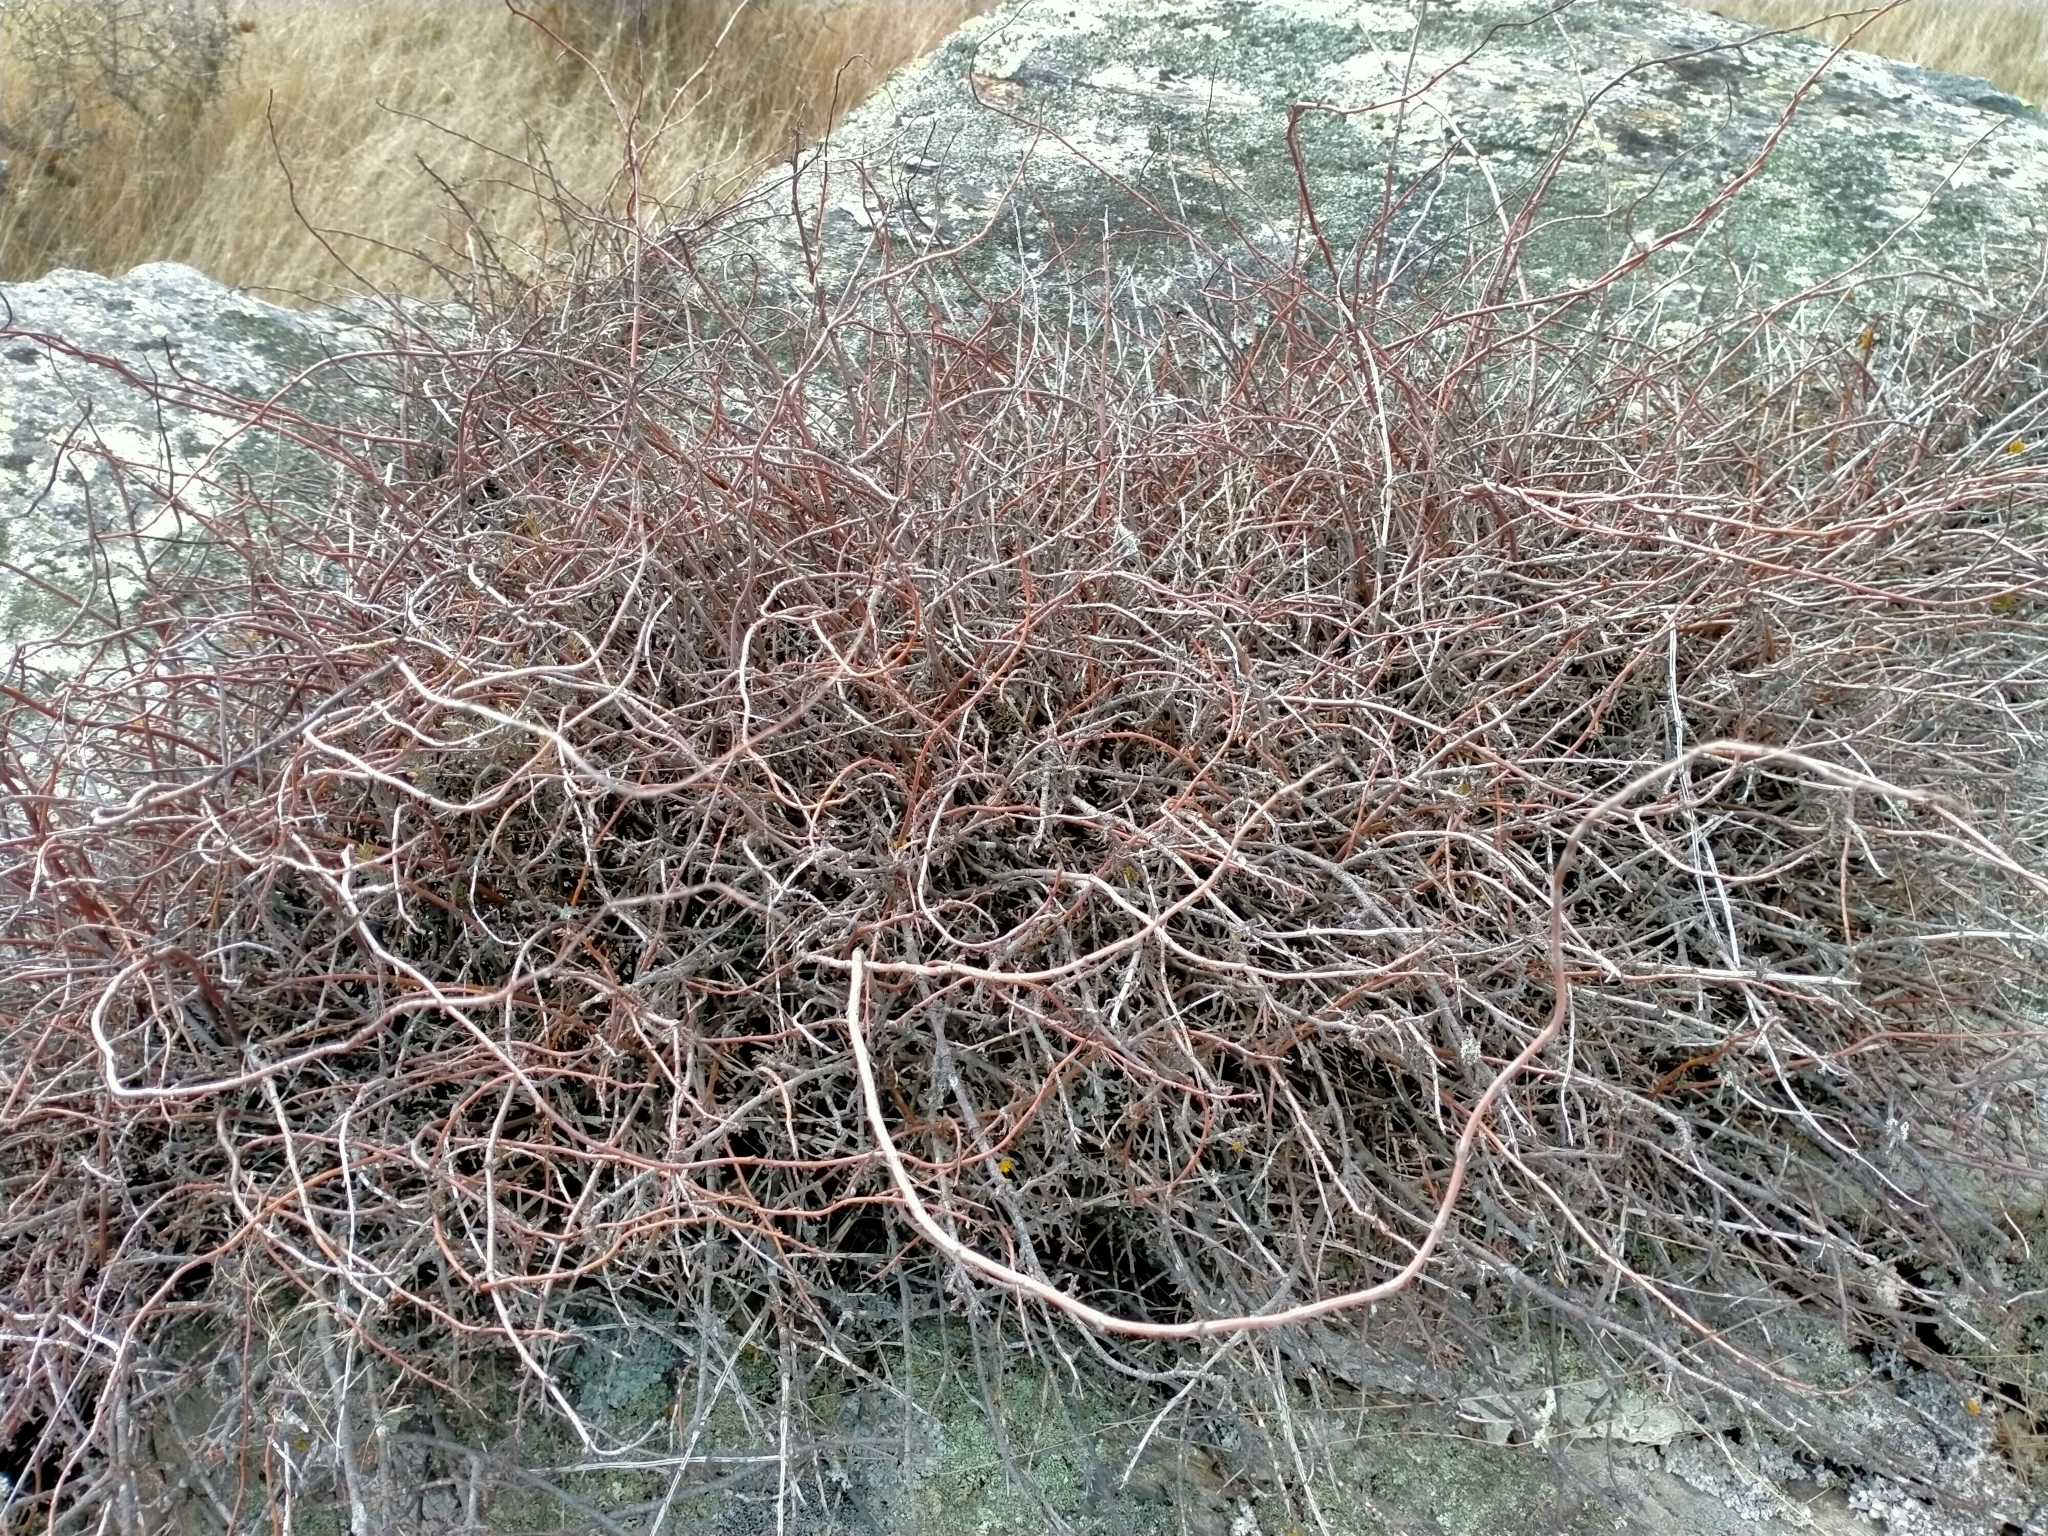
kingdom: Plantae
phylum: Tracheophyta
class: Magnoliopsida
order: Caryophyllales
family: Polygonaceae
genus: Muehlenbeckia
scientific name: Muehlenbeckia complexa
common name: Wireplant
